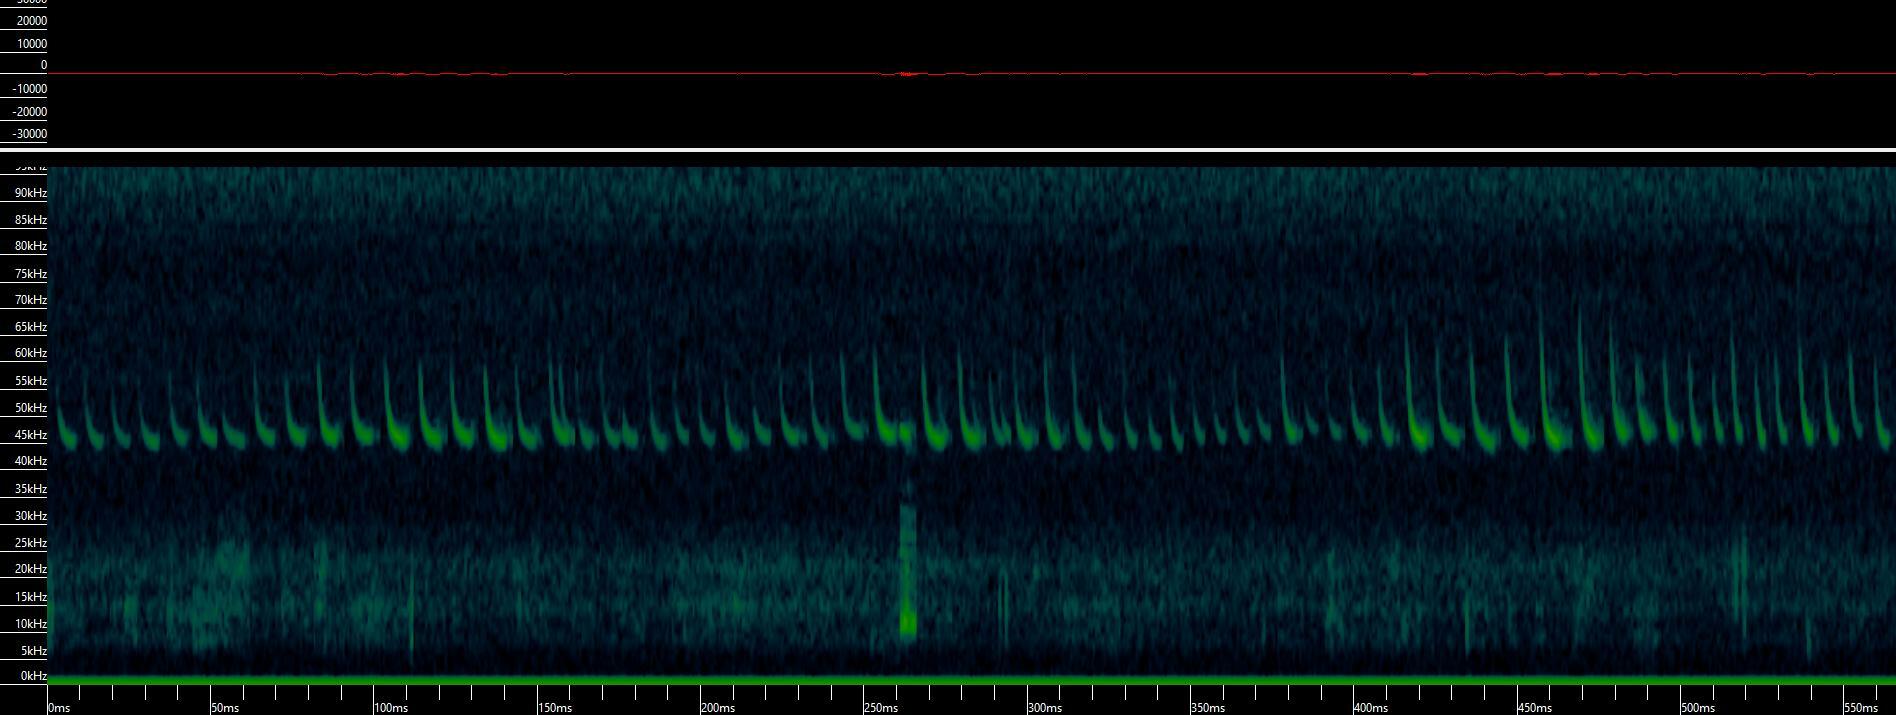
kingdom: Animalia
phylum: Chordata
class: Mammalia
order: Chiroptera
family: Vespertilionidae
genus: Pipistrellus
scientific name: Pipistrellus pipistrellus
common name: Common pipistrelle
